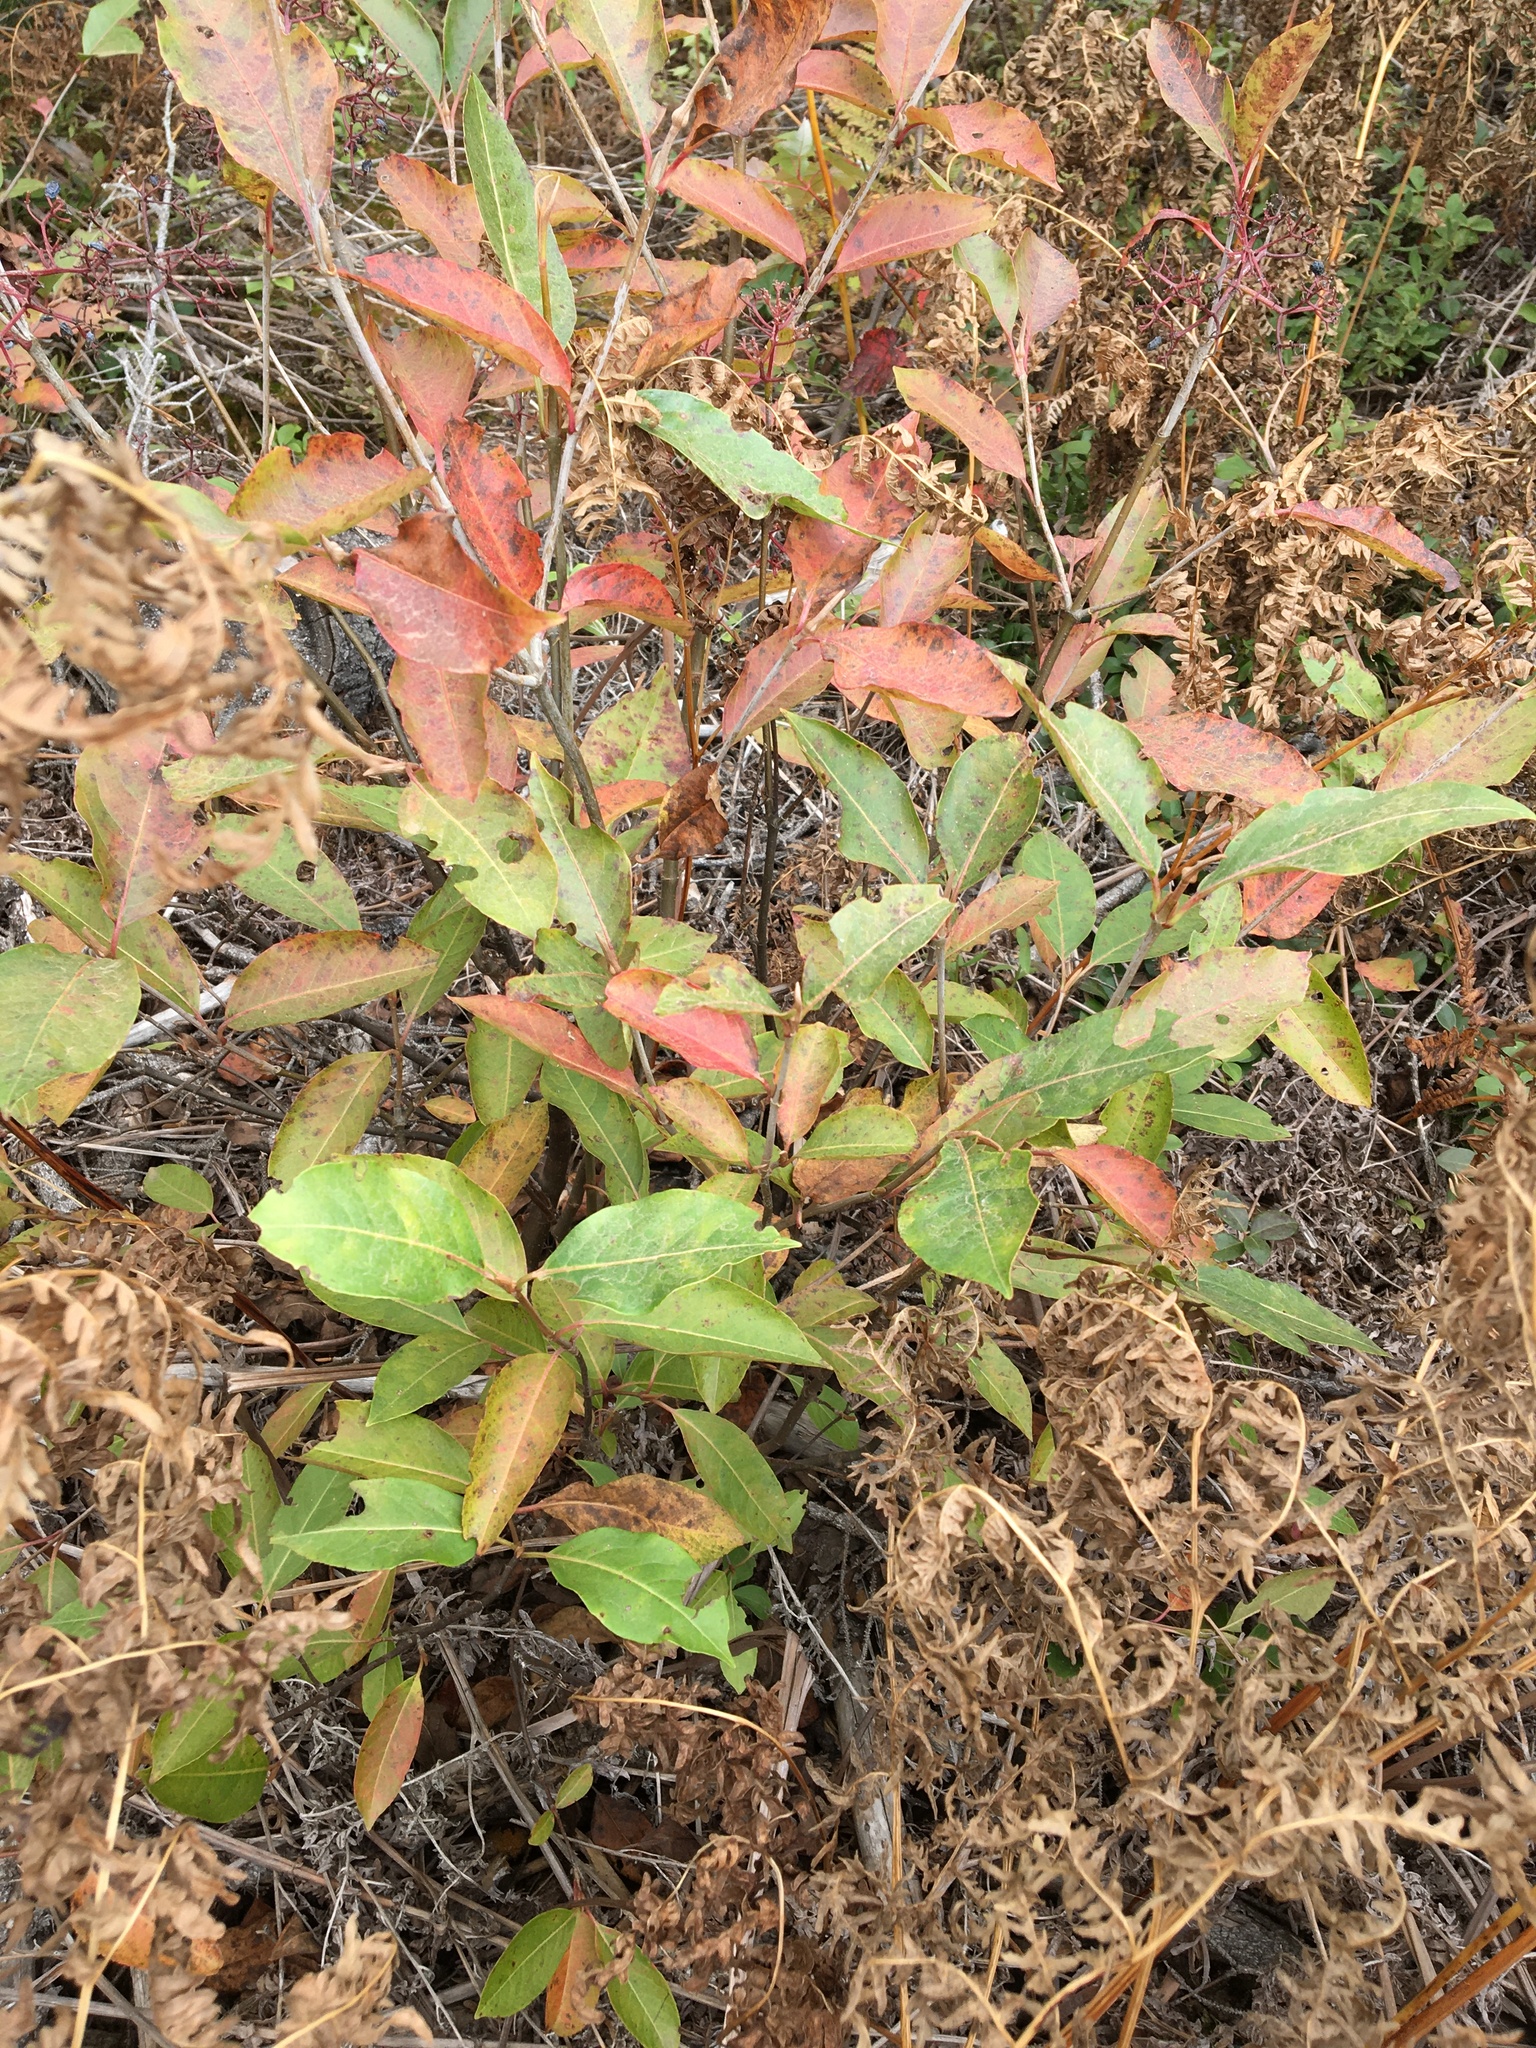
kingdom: Plantae
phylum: Tracheophyta
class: Magnoliopsida
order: Dipsacales
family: Viburnaceae
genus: Viburnum
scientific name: Viburnum cassinoides
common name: Swamp haw
